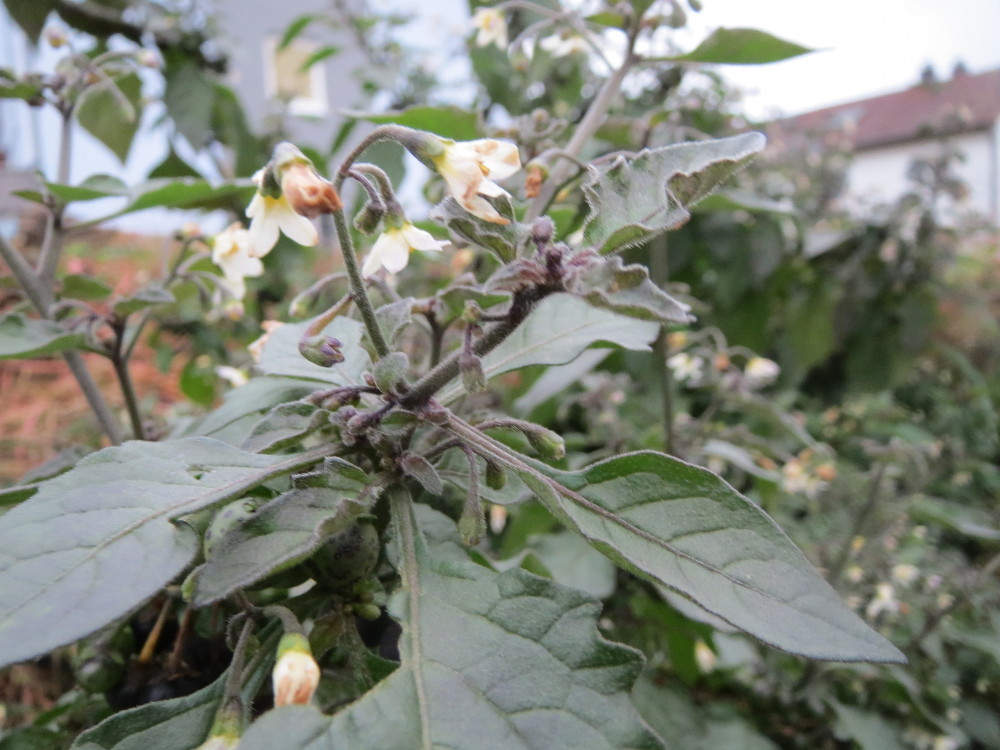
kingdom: Plantae
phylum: Tracheophyta
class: Magnoliopsida
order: Solanales
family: Solanaceae
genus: Solanum
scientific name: Solanum nigrum
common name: Black nightshade
